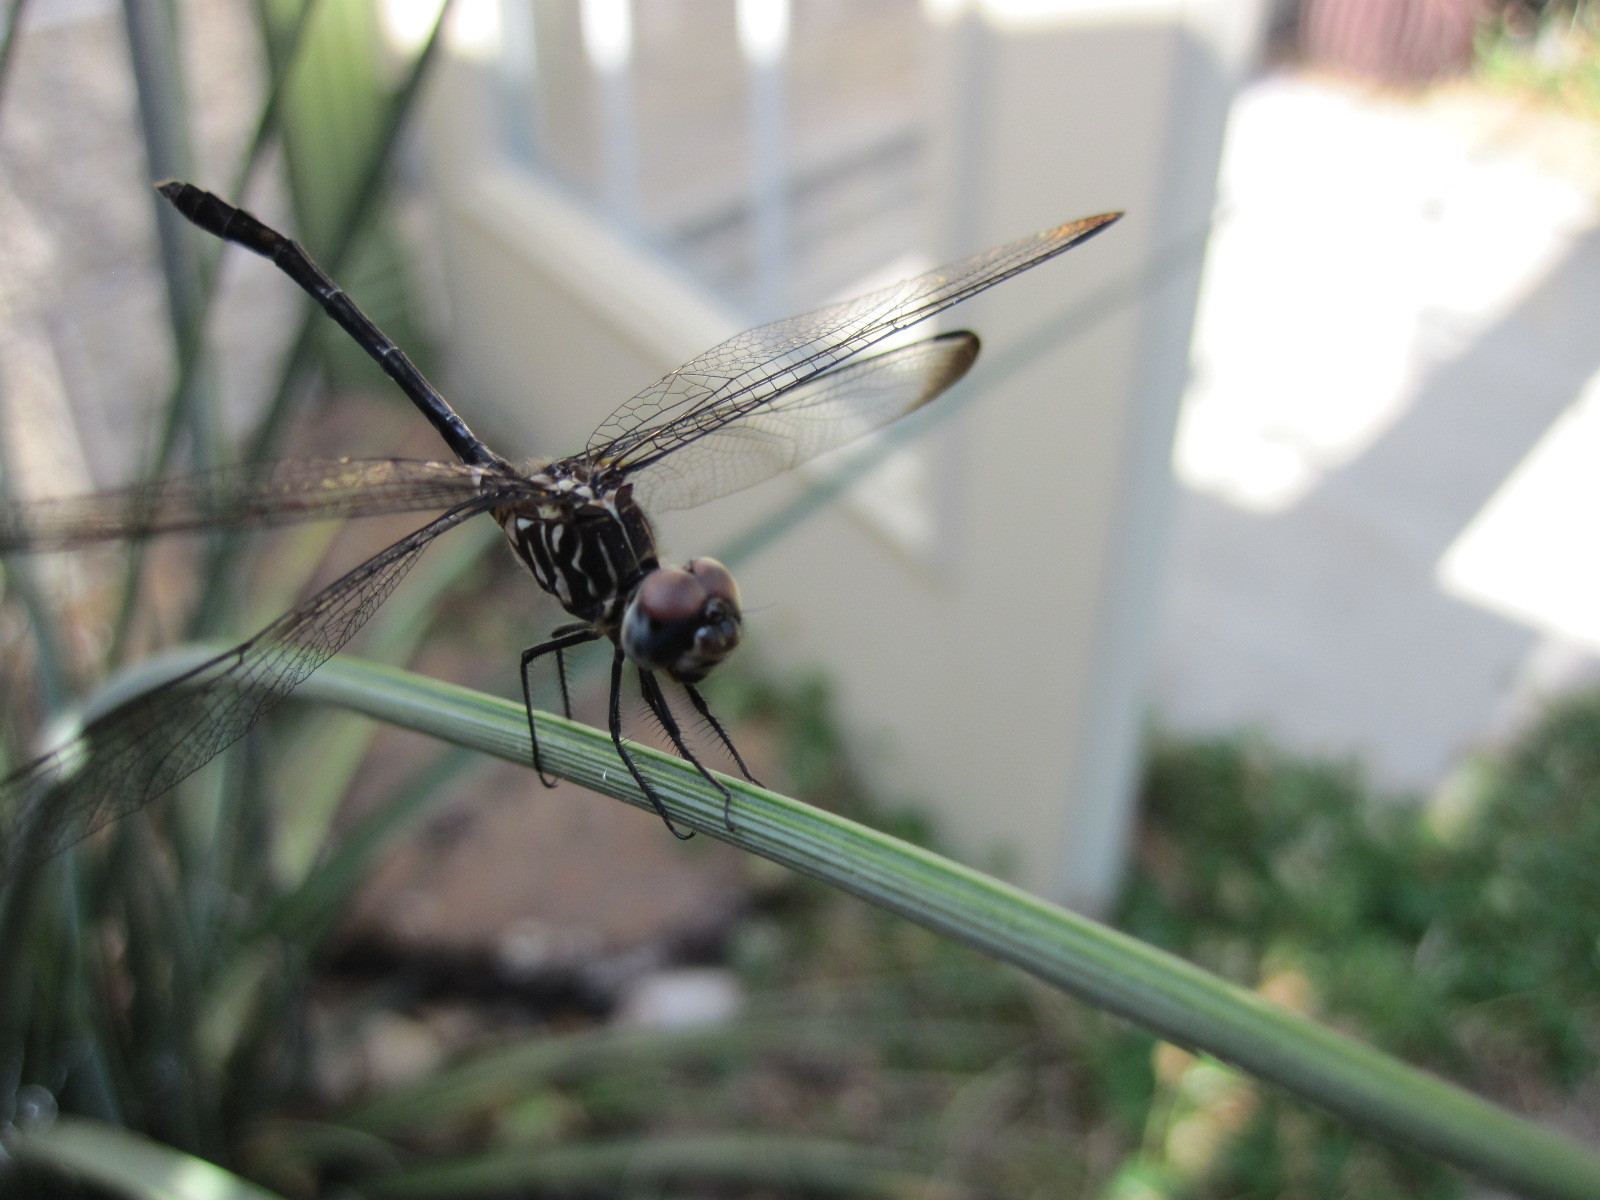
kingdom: Animalia
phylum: Arthropoda
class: Insecta
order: Odonata
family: Libellulidae
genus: Dythemis
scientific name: Dythemis velox
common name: Swift setwing
